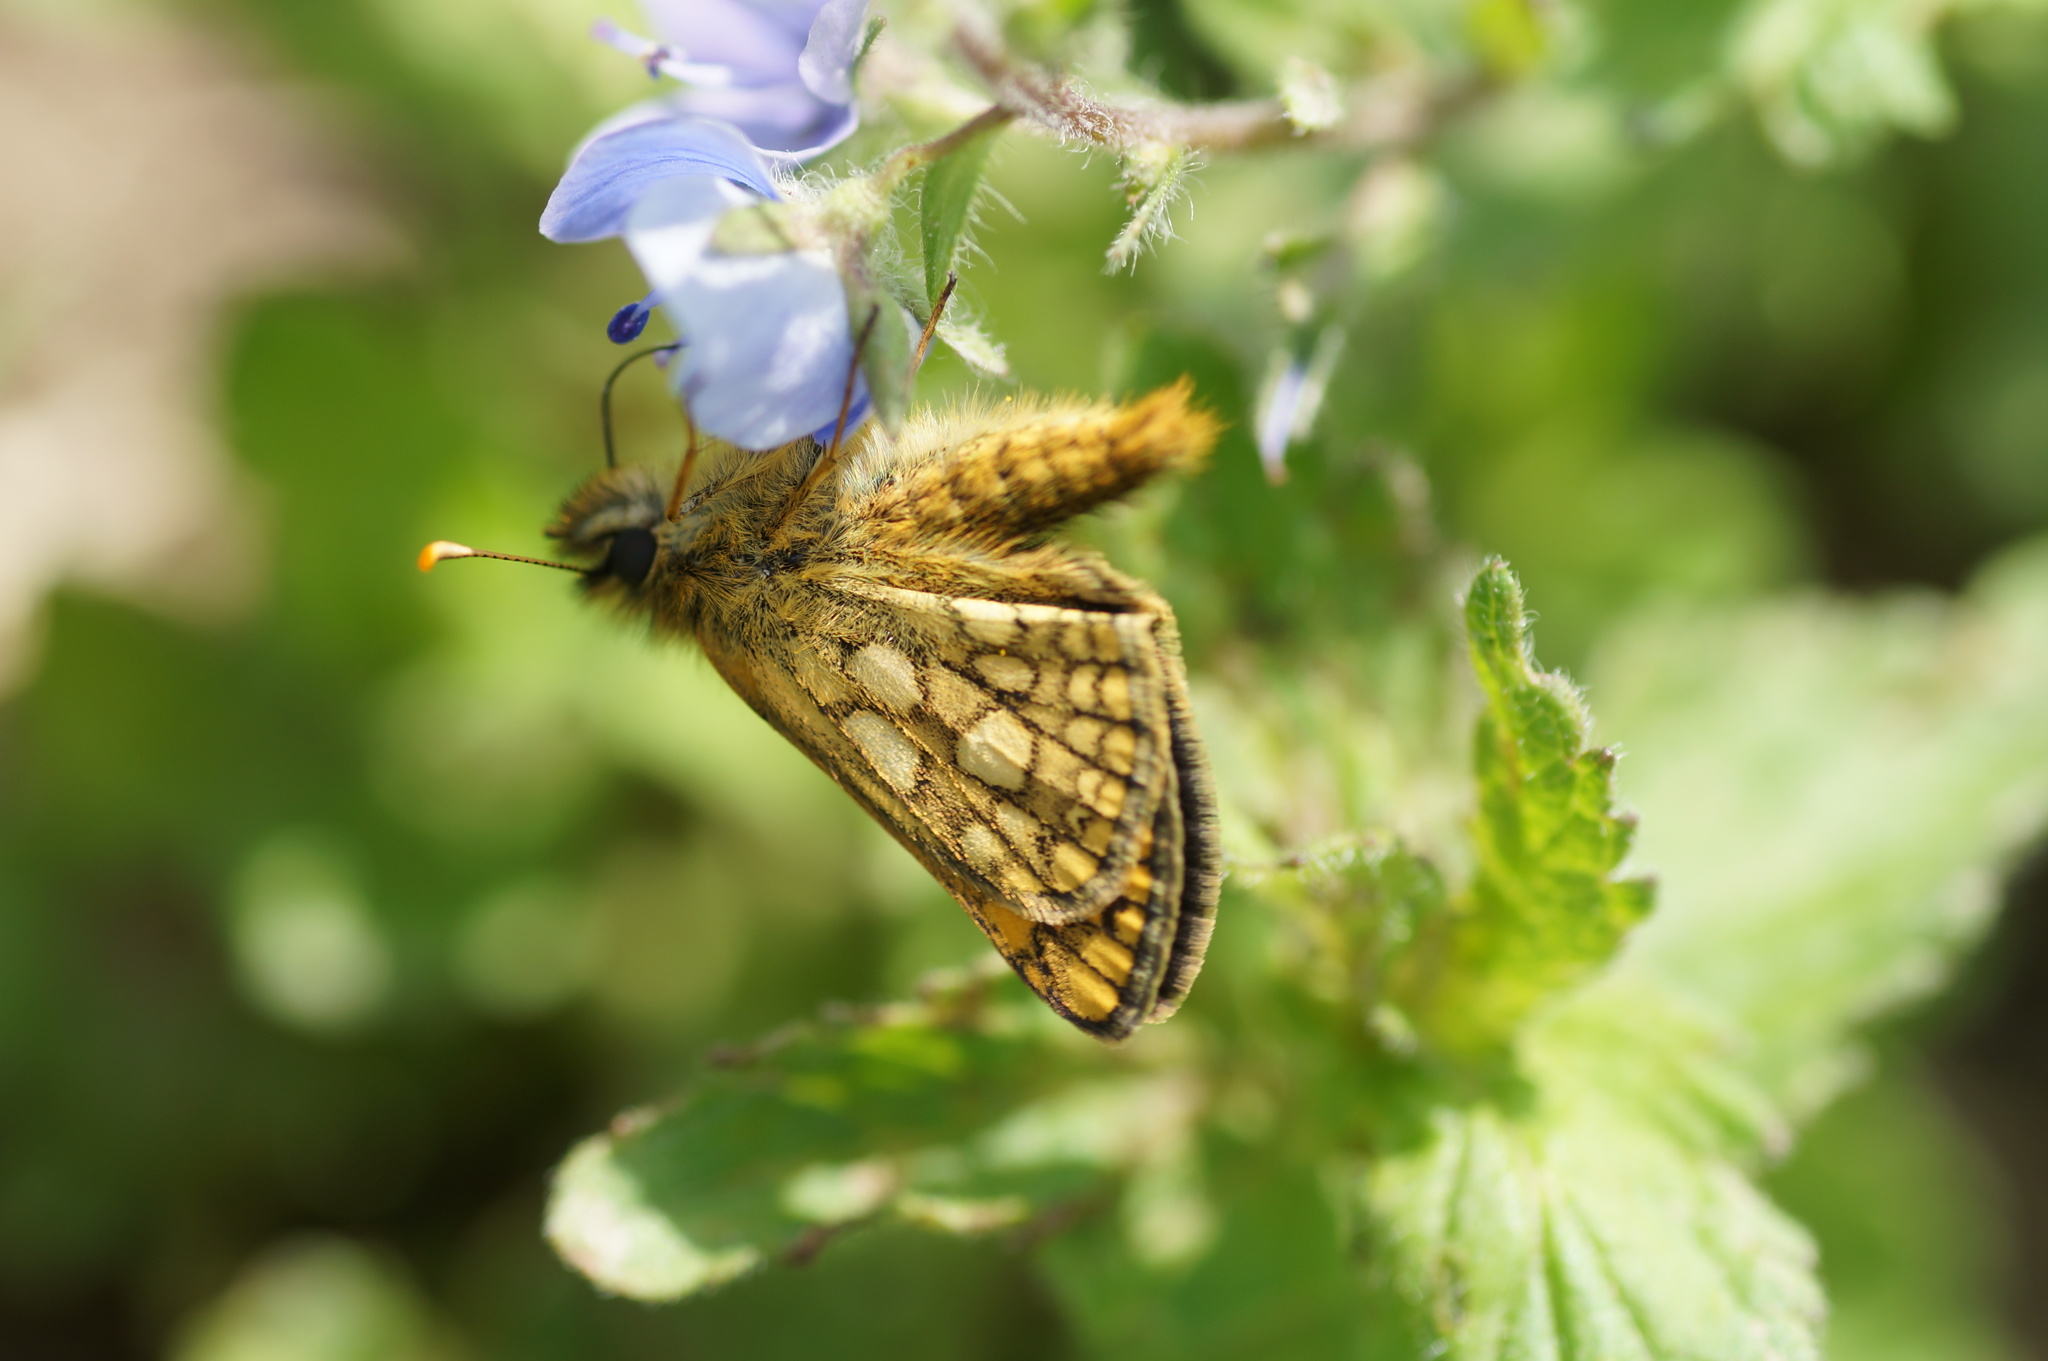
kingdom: Animalia
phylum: Arthropoda
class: Insecta
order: Lepidoptera
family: Hesperiidae
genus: Carterocephalus
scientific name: Carterocephalus palaemon
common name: Chequered skipper
